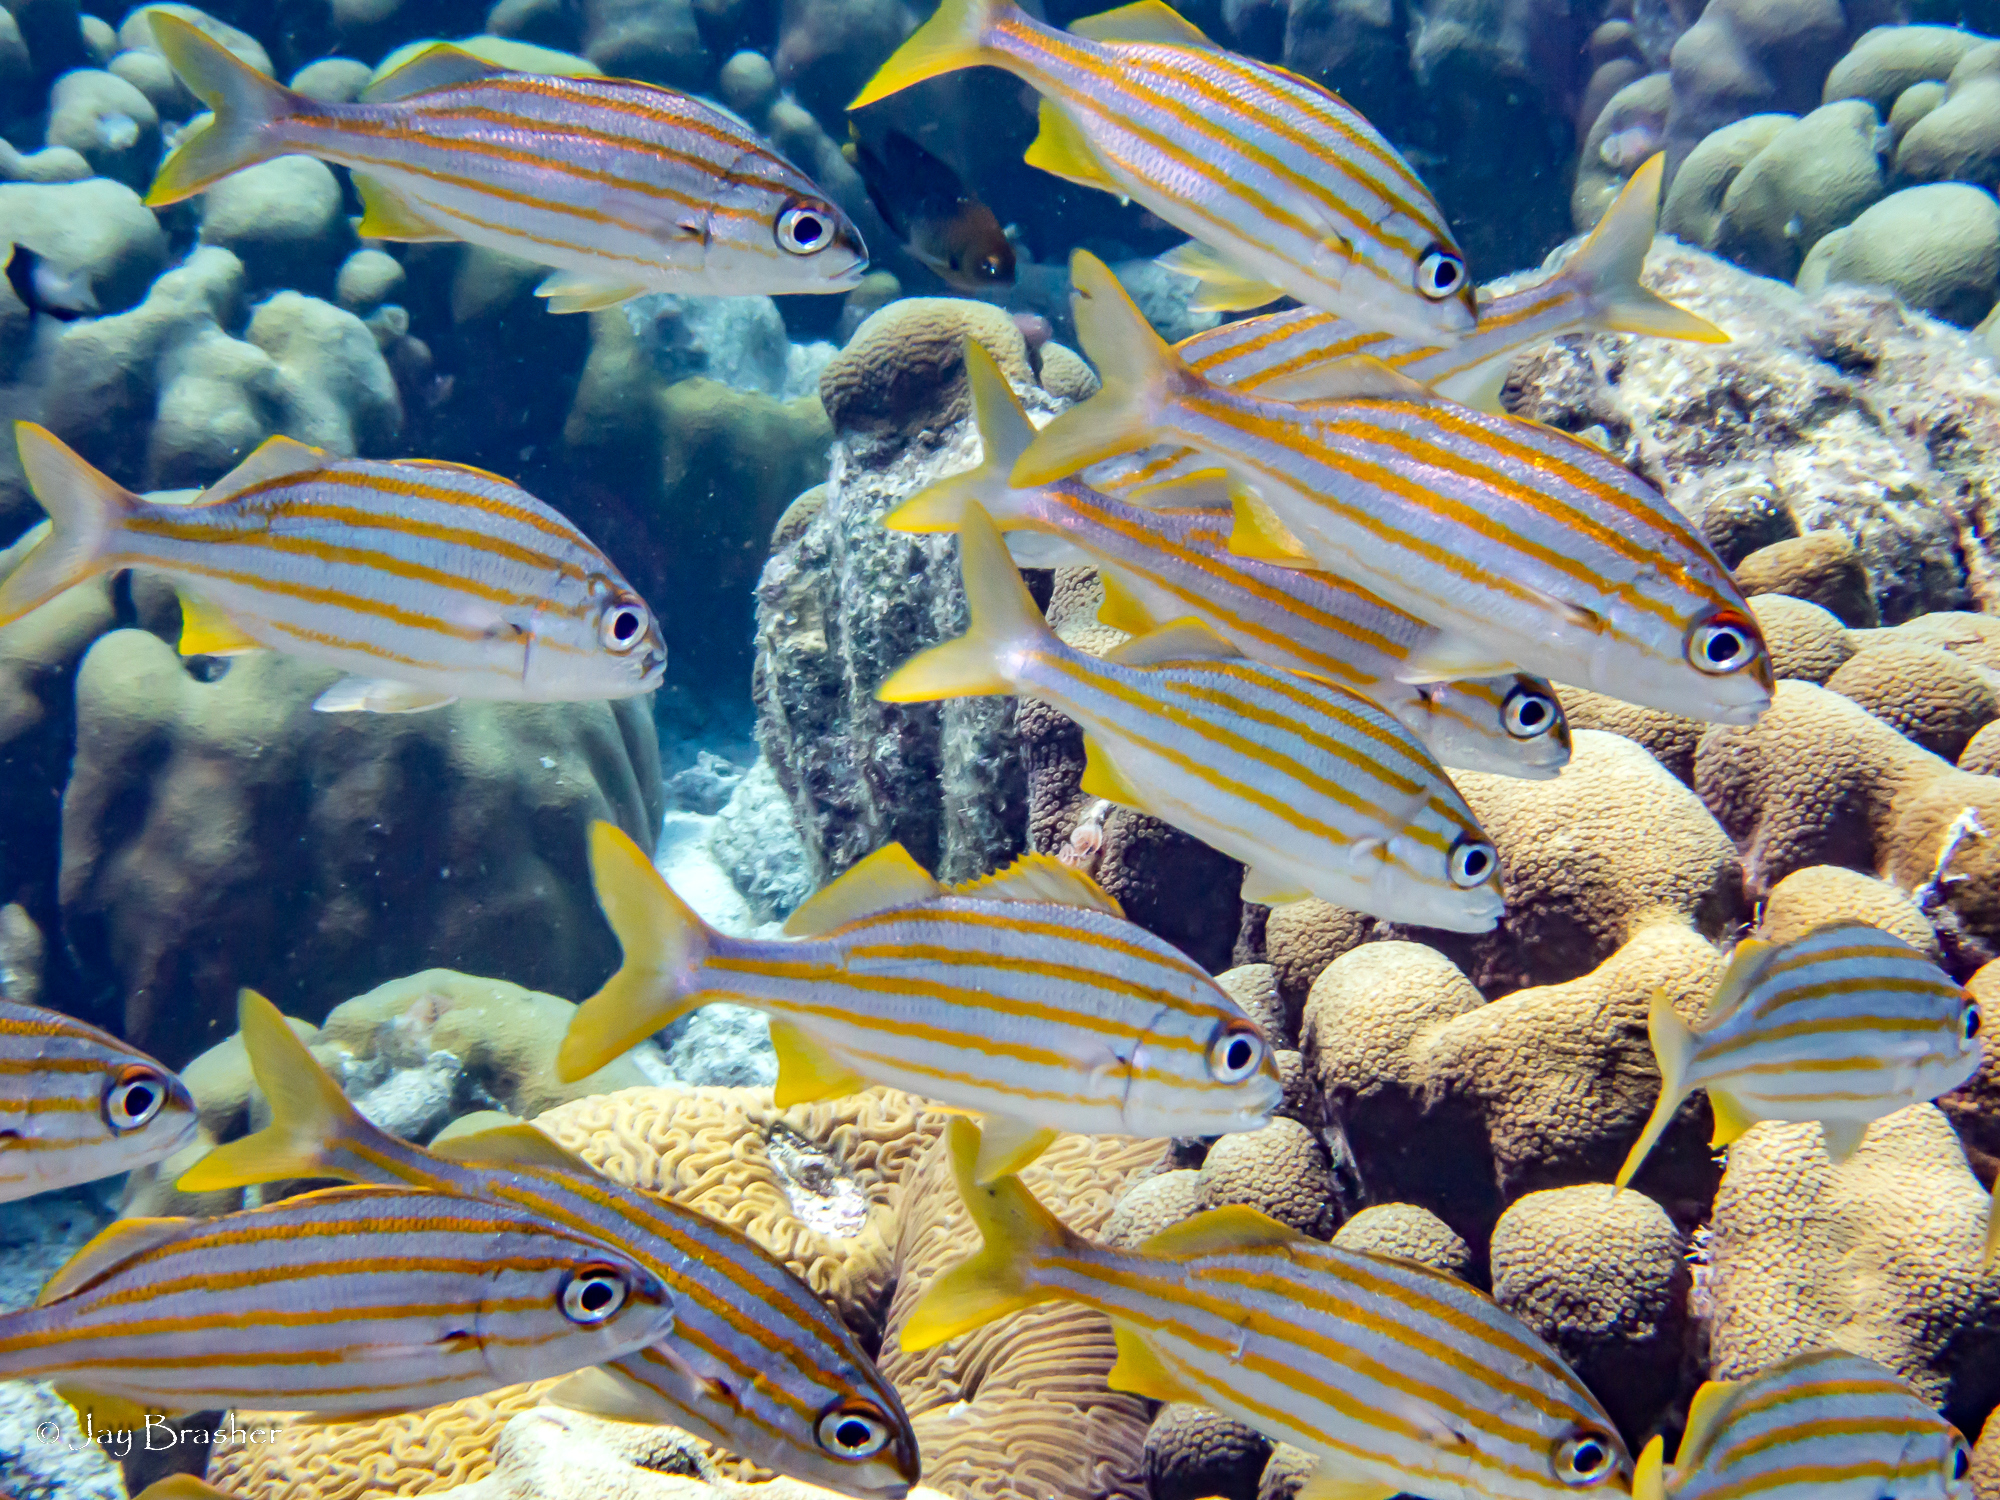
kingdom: Animalia
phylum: Chordata
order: Perciformes
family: Haemulidae
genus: Haemulon
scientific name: Haemulon chrysargyreum
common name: Smallmouth grunt
